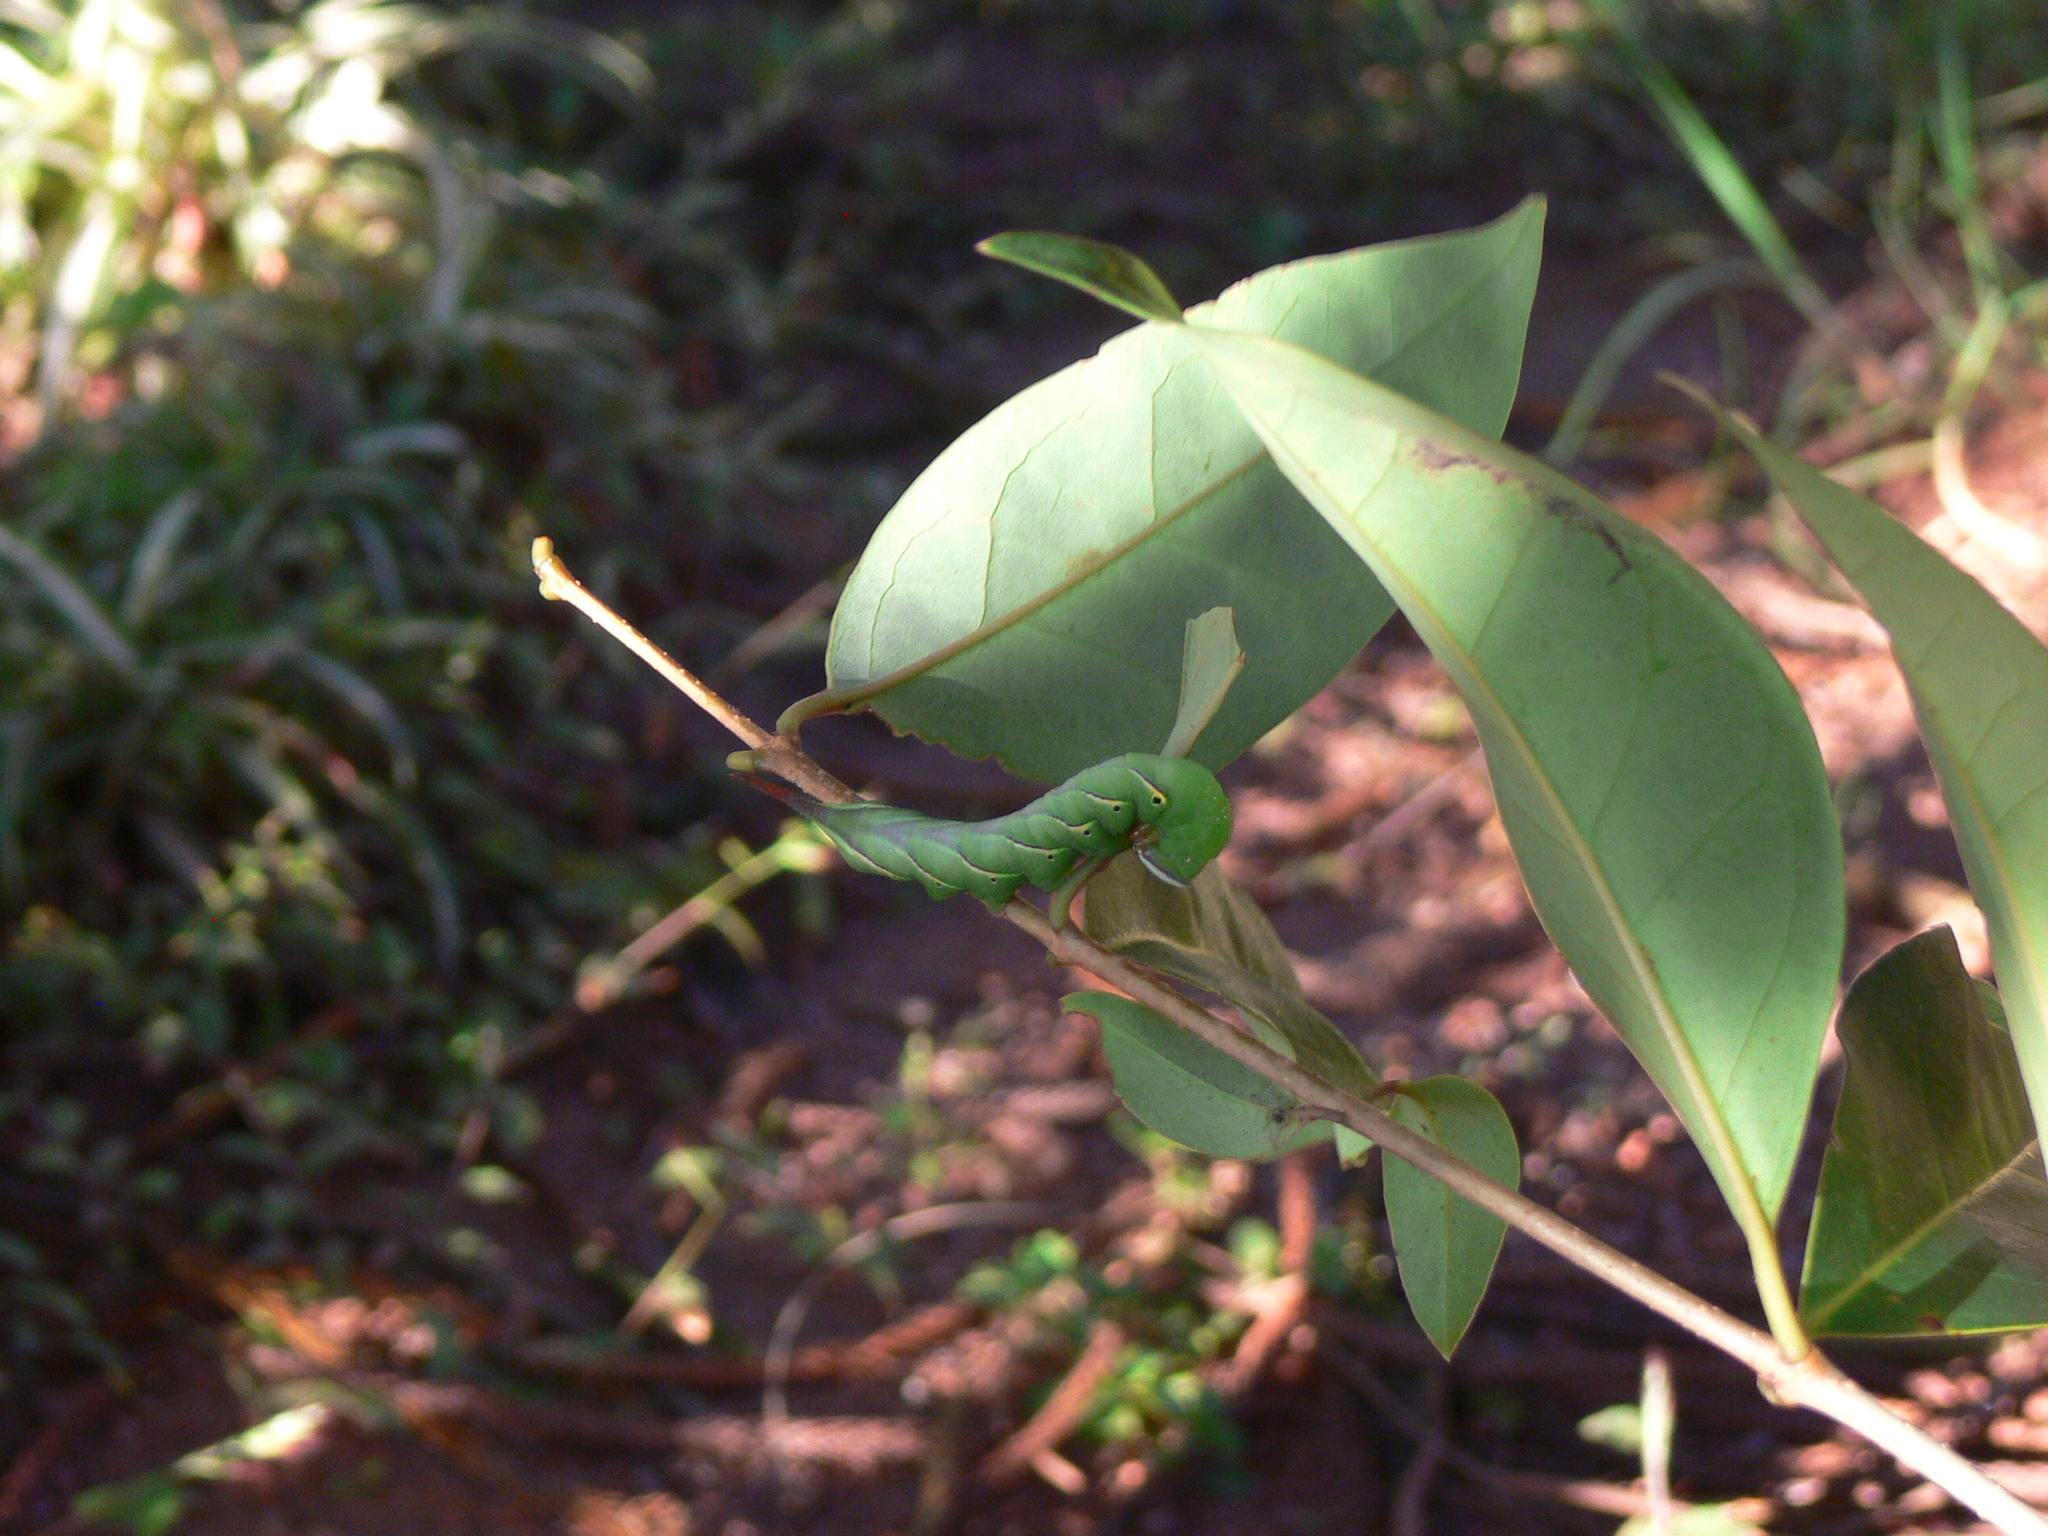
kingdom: Animalia
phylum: Arthropoda
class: Insecta
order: Lepidoptera
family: Sphingidae
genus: Panogena
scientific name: Panogena lingens
